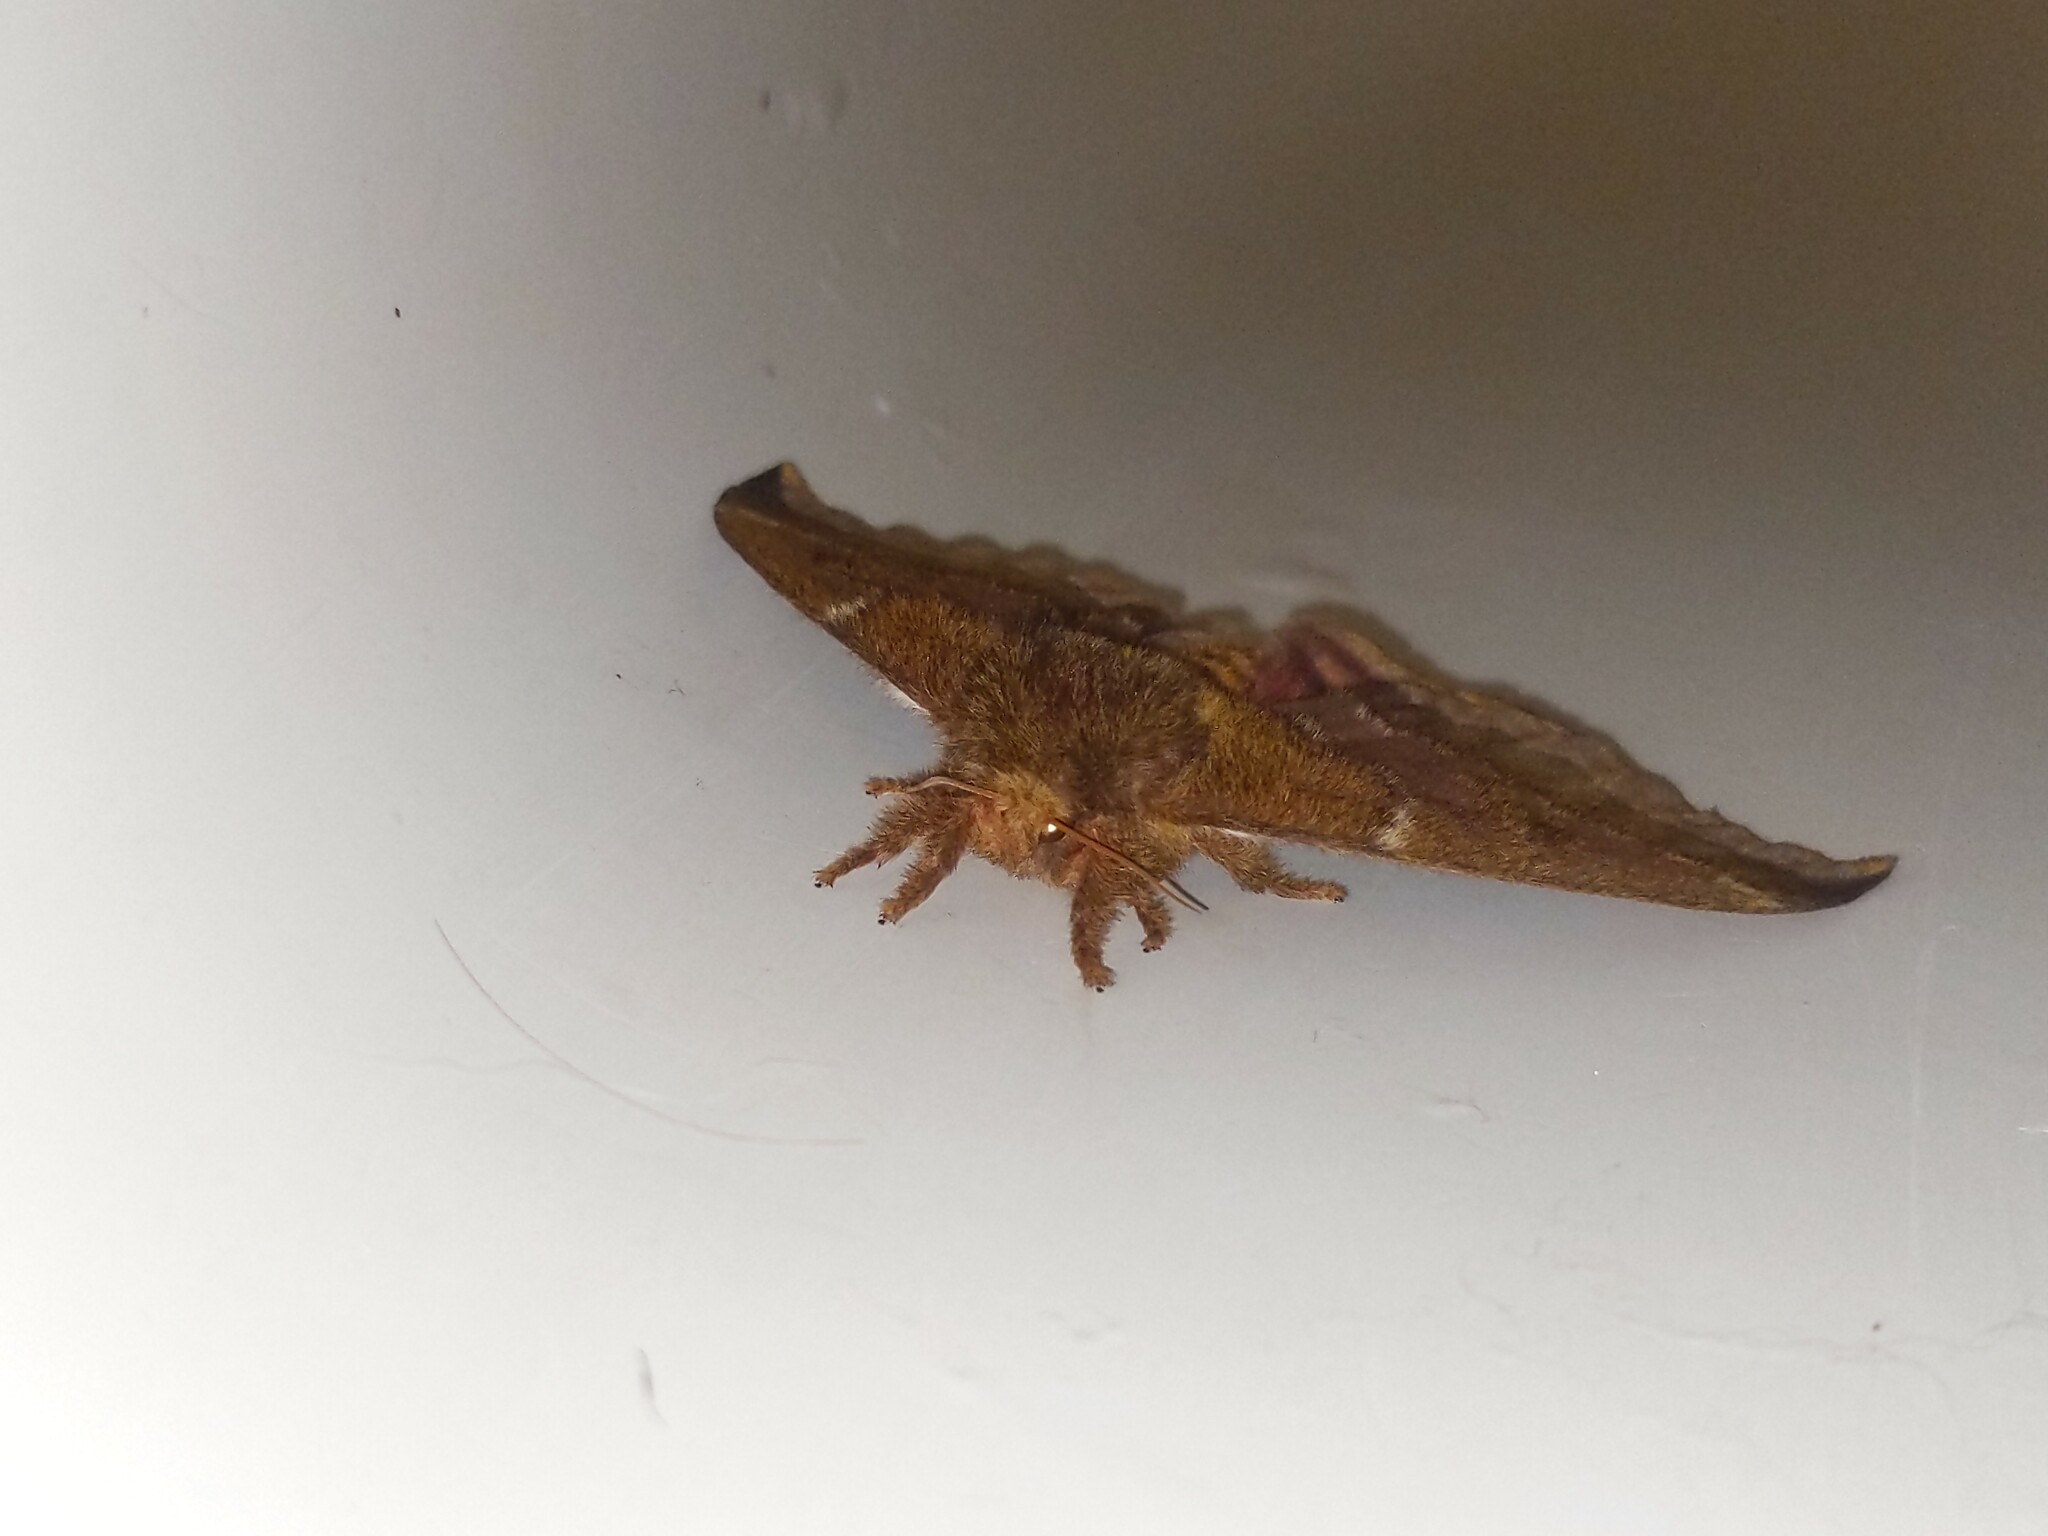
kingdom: Animalia
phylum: Arthropoda
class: Insecta
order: Lepidoptera
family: Saturniidae
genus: Automeris
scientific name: Automeris io
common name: Io moth
